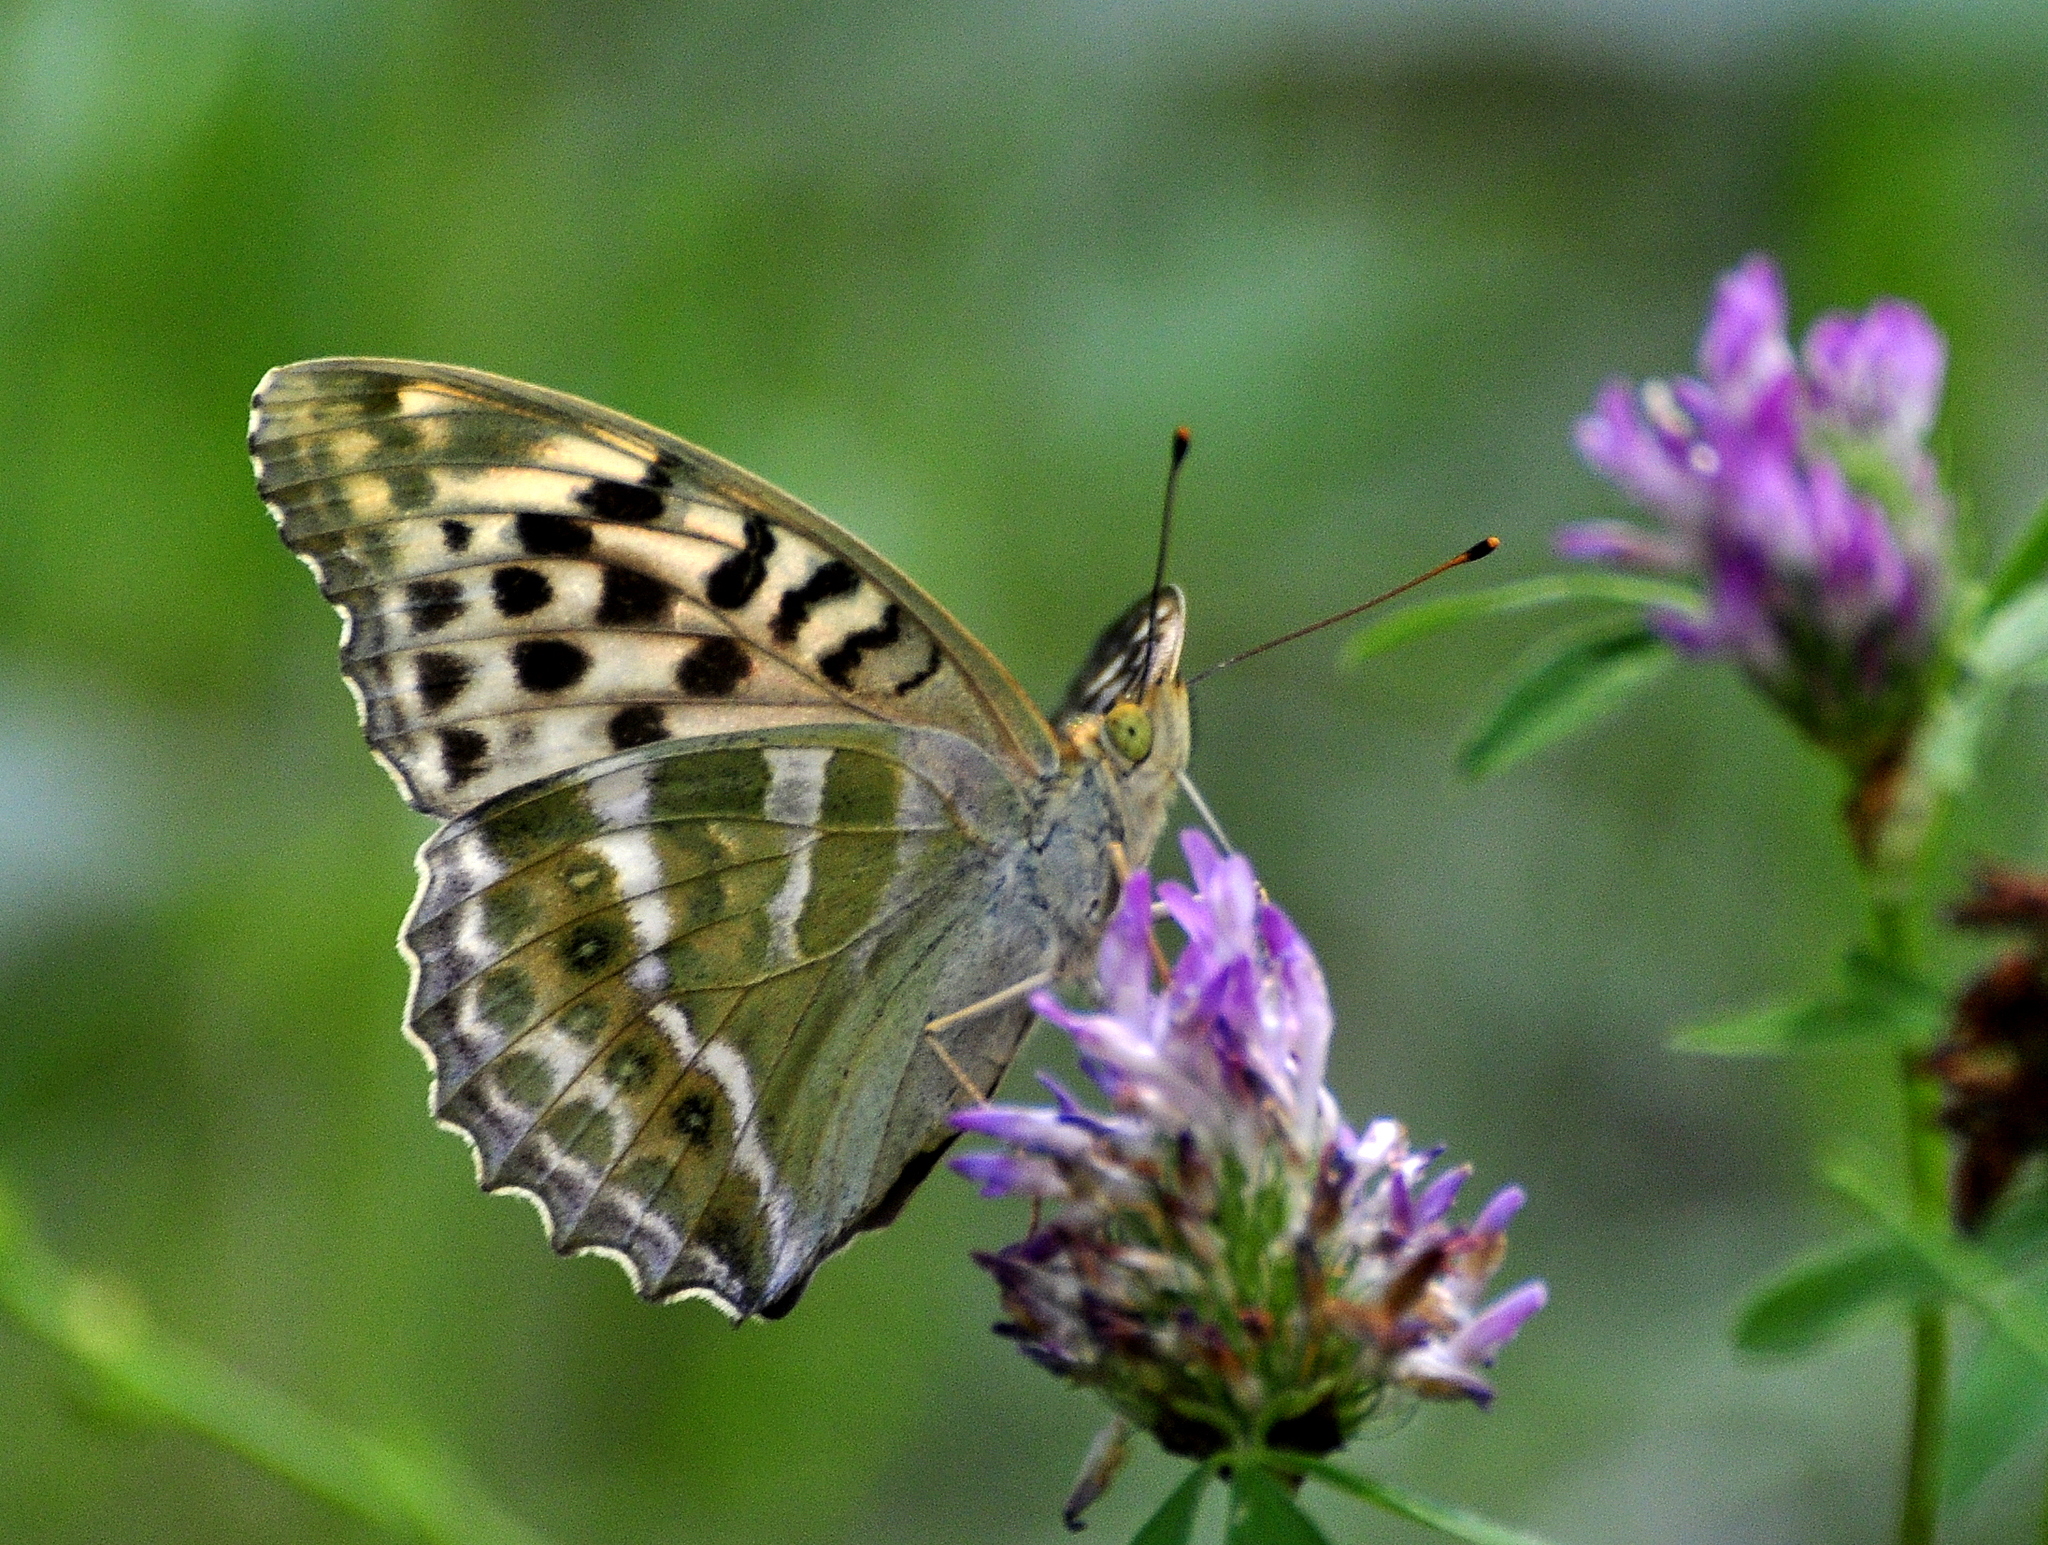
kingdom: Animalia
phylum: Arthropoda
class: Insecta
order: Lepidoptera
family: Nymphalidae
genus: Argynnis
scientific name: Argynnis paphia
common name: Silver-washed fritillary
